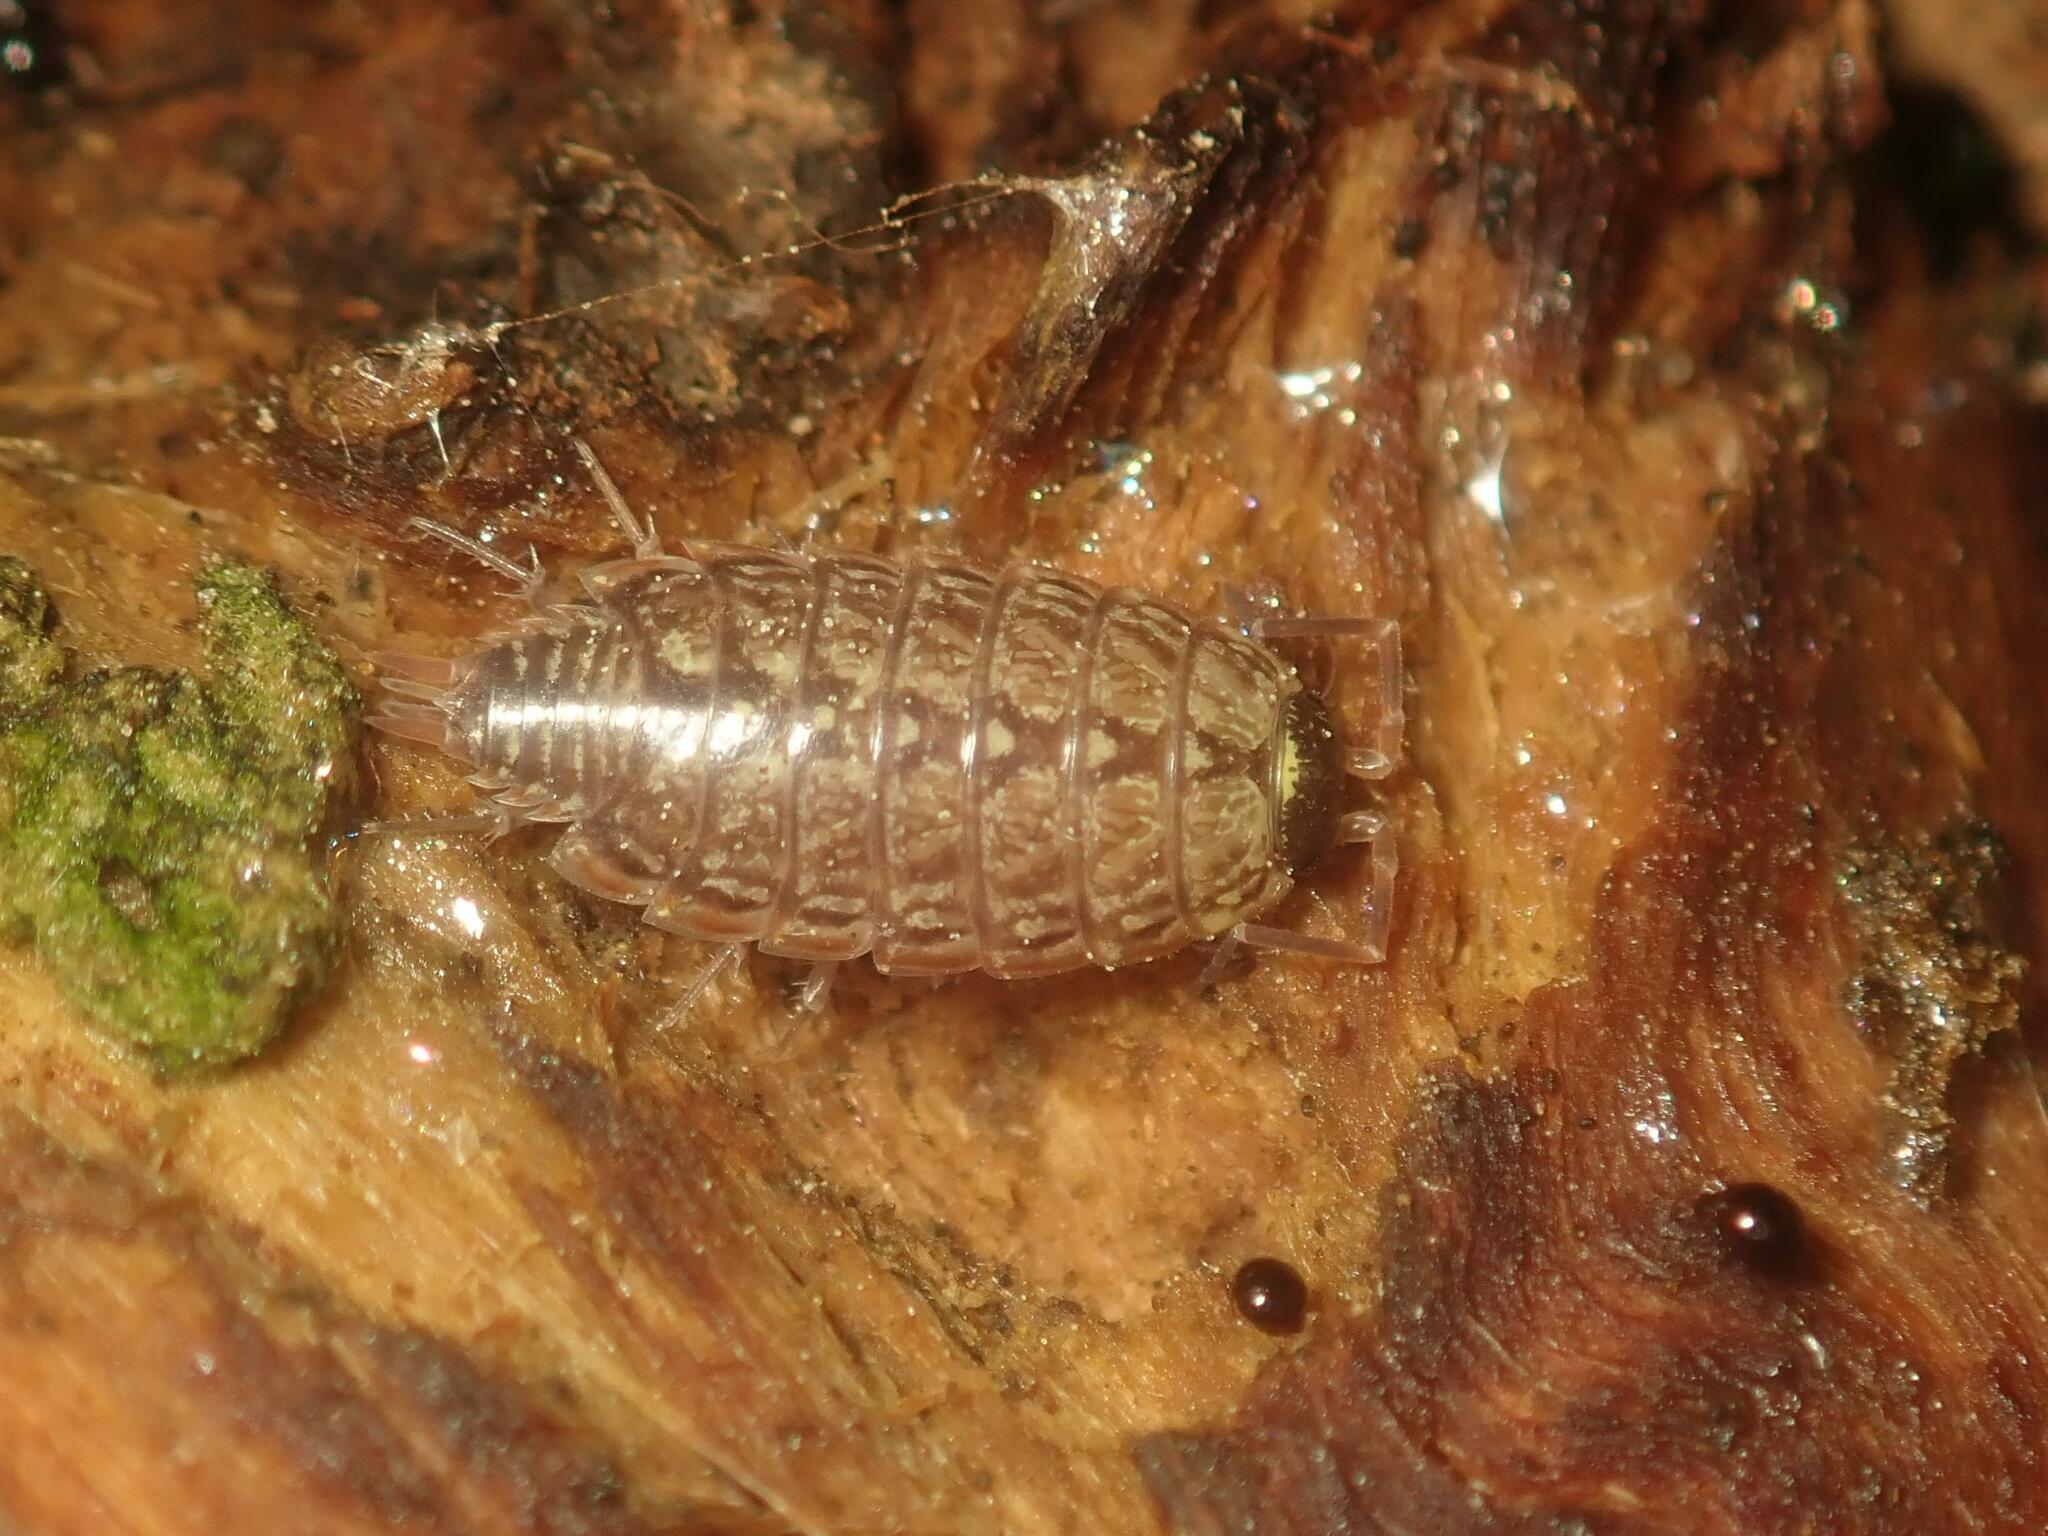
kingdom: Animalia
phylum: Arthropoda
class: Malacostraca
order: Isopoda
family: Philosciidae
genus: Philoscia
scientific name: Philoscia muscorum
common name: Common striped woodlouse
